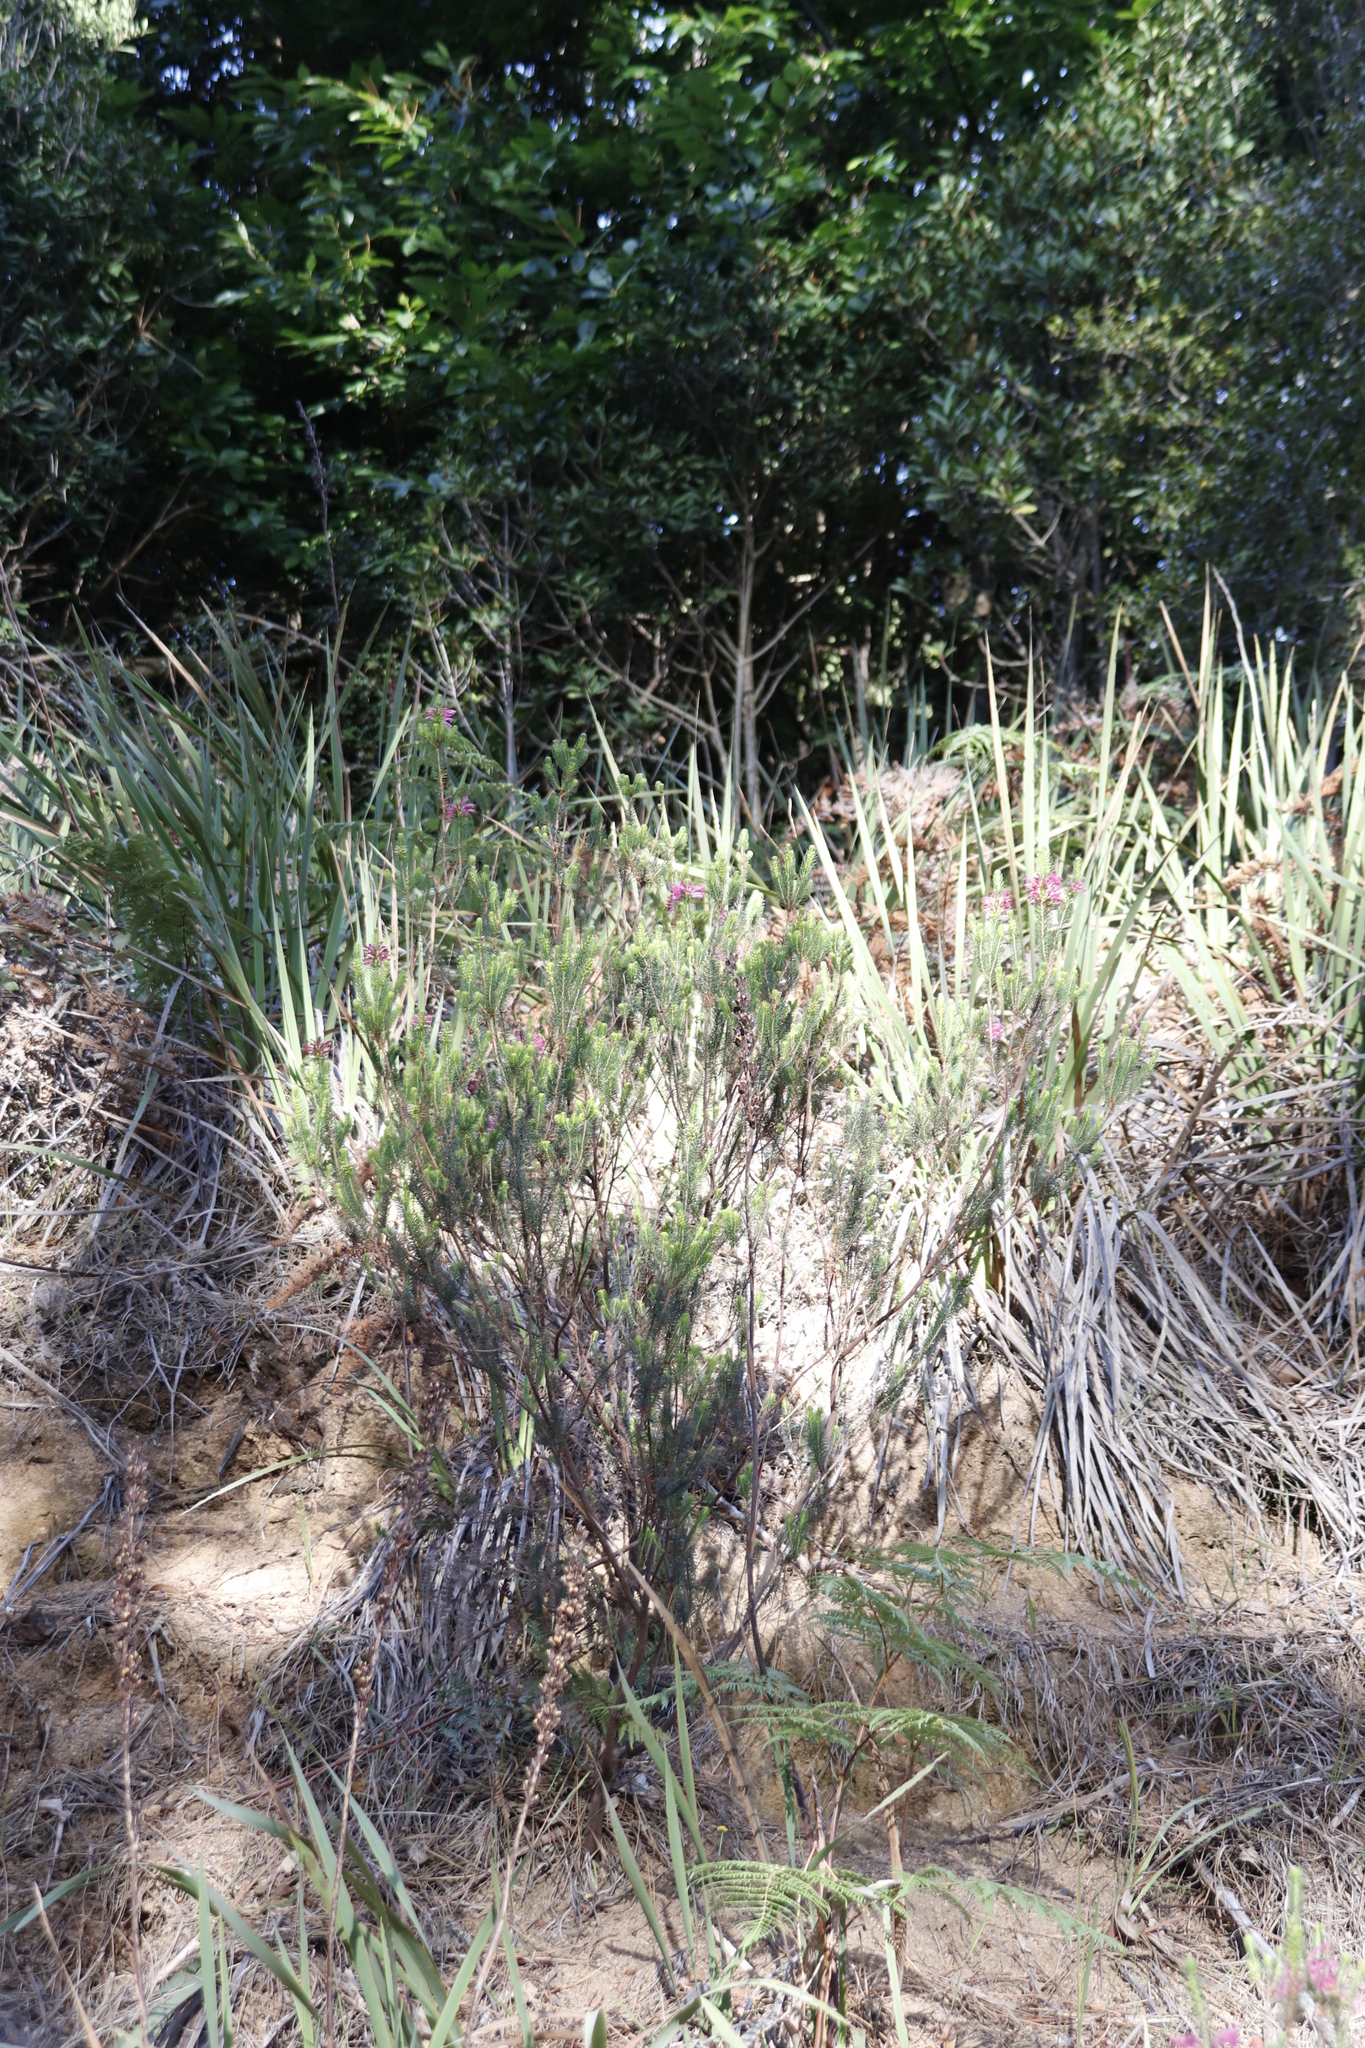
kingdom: Plantae
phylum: Tracheophyta
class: Magnoliopsida
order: Ericales
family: Ericaceae
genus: Erica
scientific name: Erica abietina
